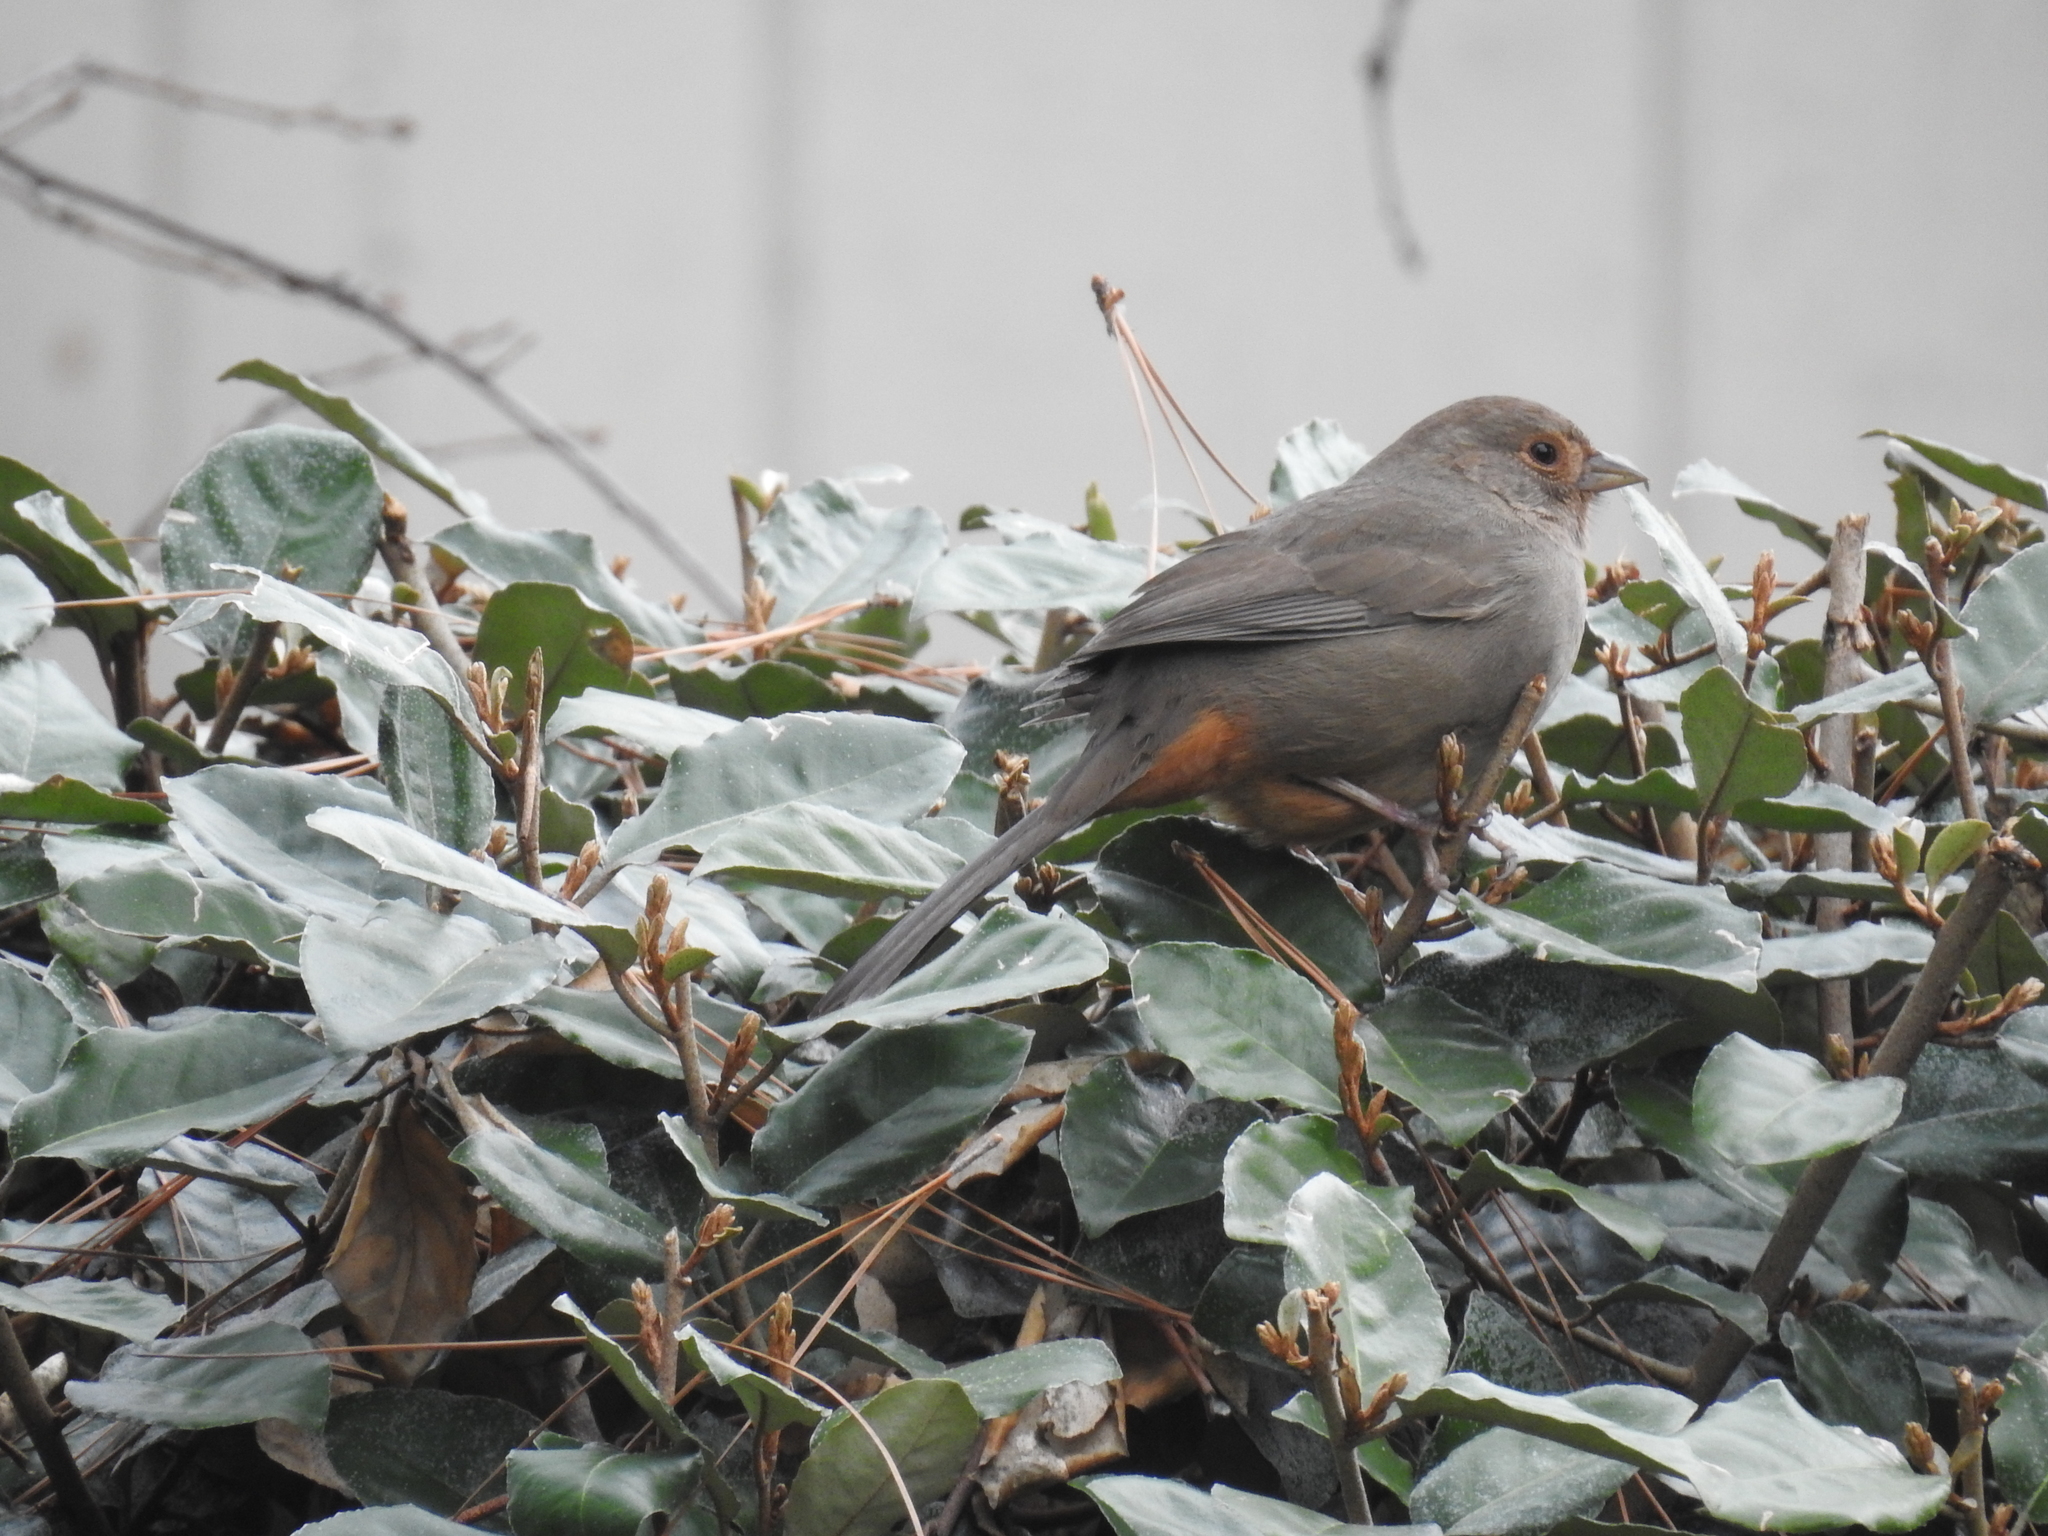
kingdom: Animalia
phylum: Chordata
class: Aves
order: Passeriformes
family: Passerellidae
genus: Melozone
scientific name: Melozone crissalis
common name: California towhee
